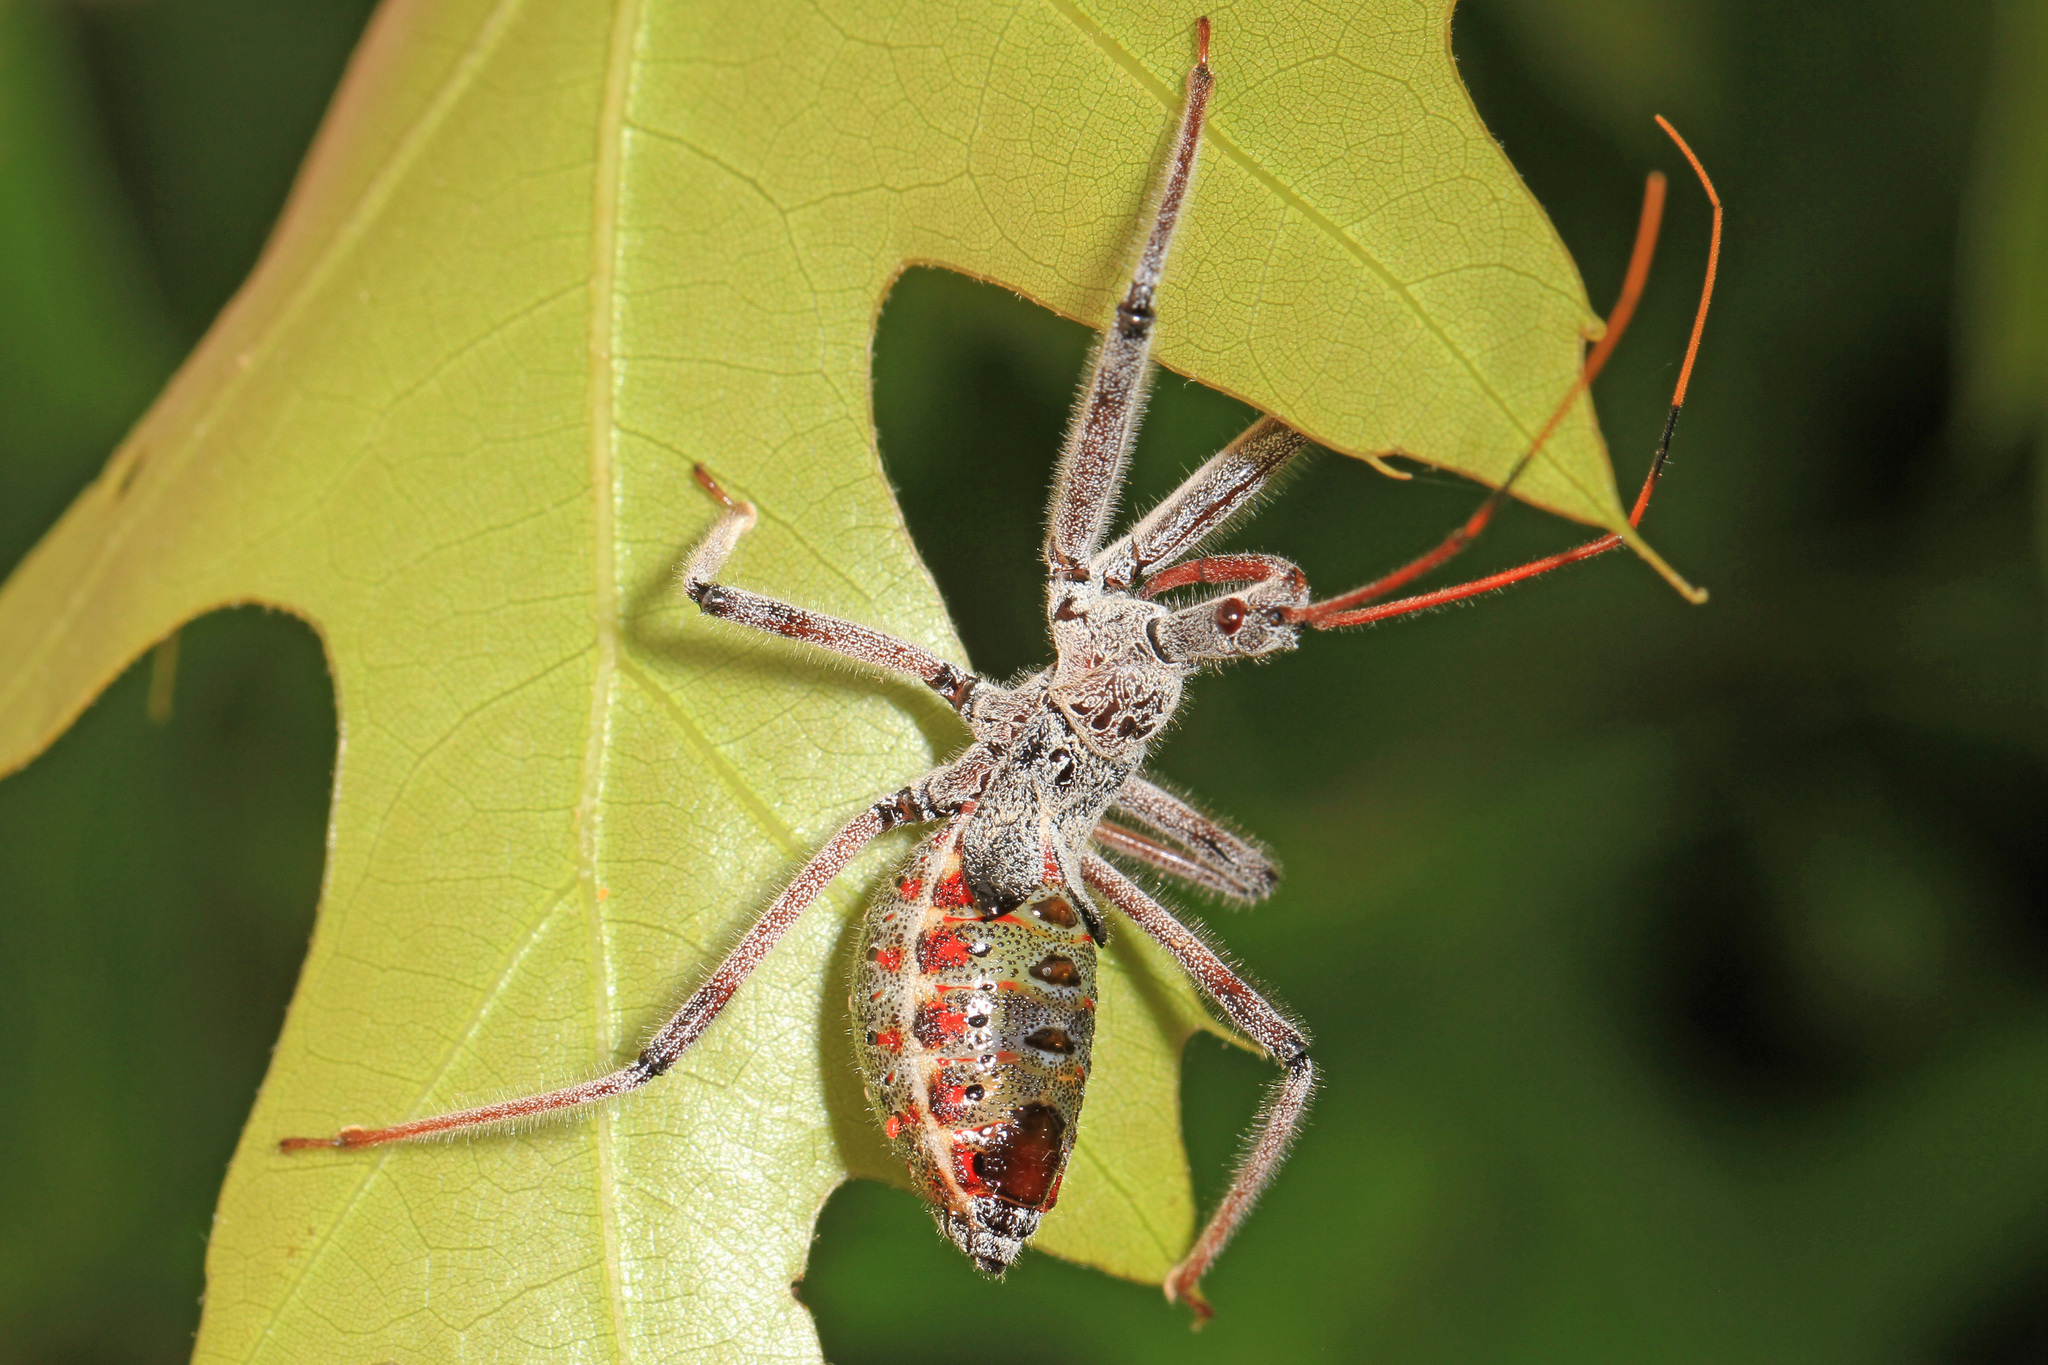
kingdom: Animalia
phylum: Arthropoda
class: Insecta
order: Hemiptera
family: Reduviidae
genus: Arilus
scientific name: Arilus cristatus
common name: North american wheel bug
